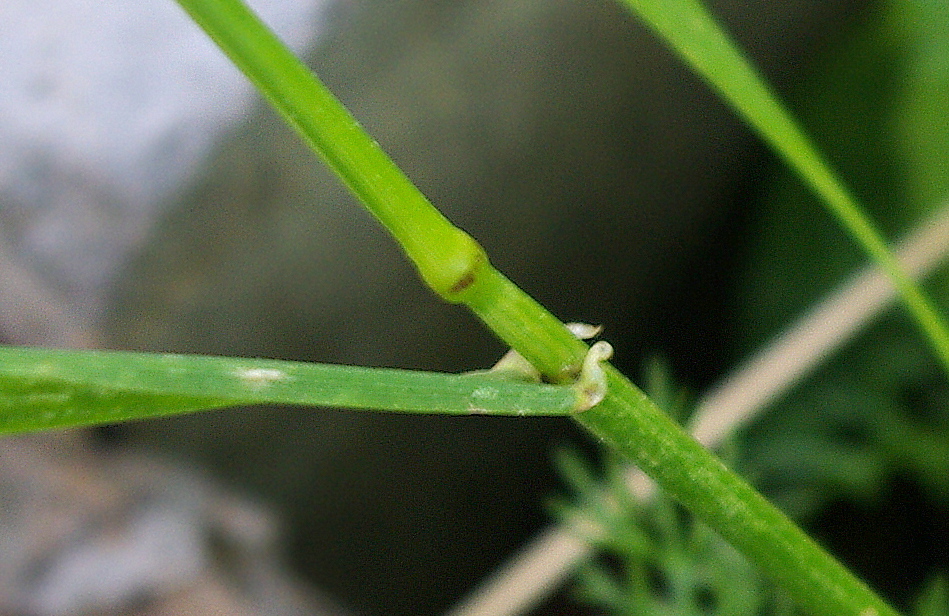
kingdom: Plantae
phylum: Tracheophyta
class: Liliopsida
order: Poales
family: Poaceae
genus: Lolium
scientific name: Lolium perenne
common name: Perennial ryegrass
